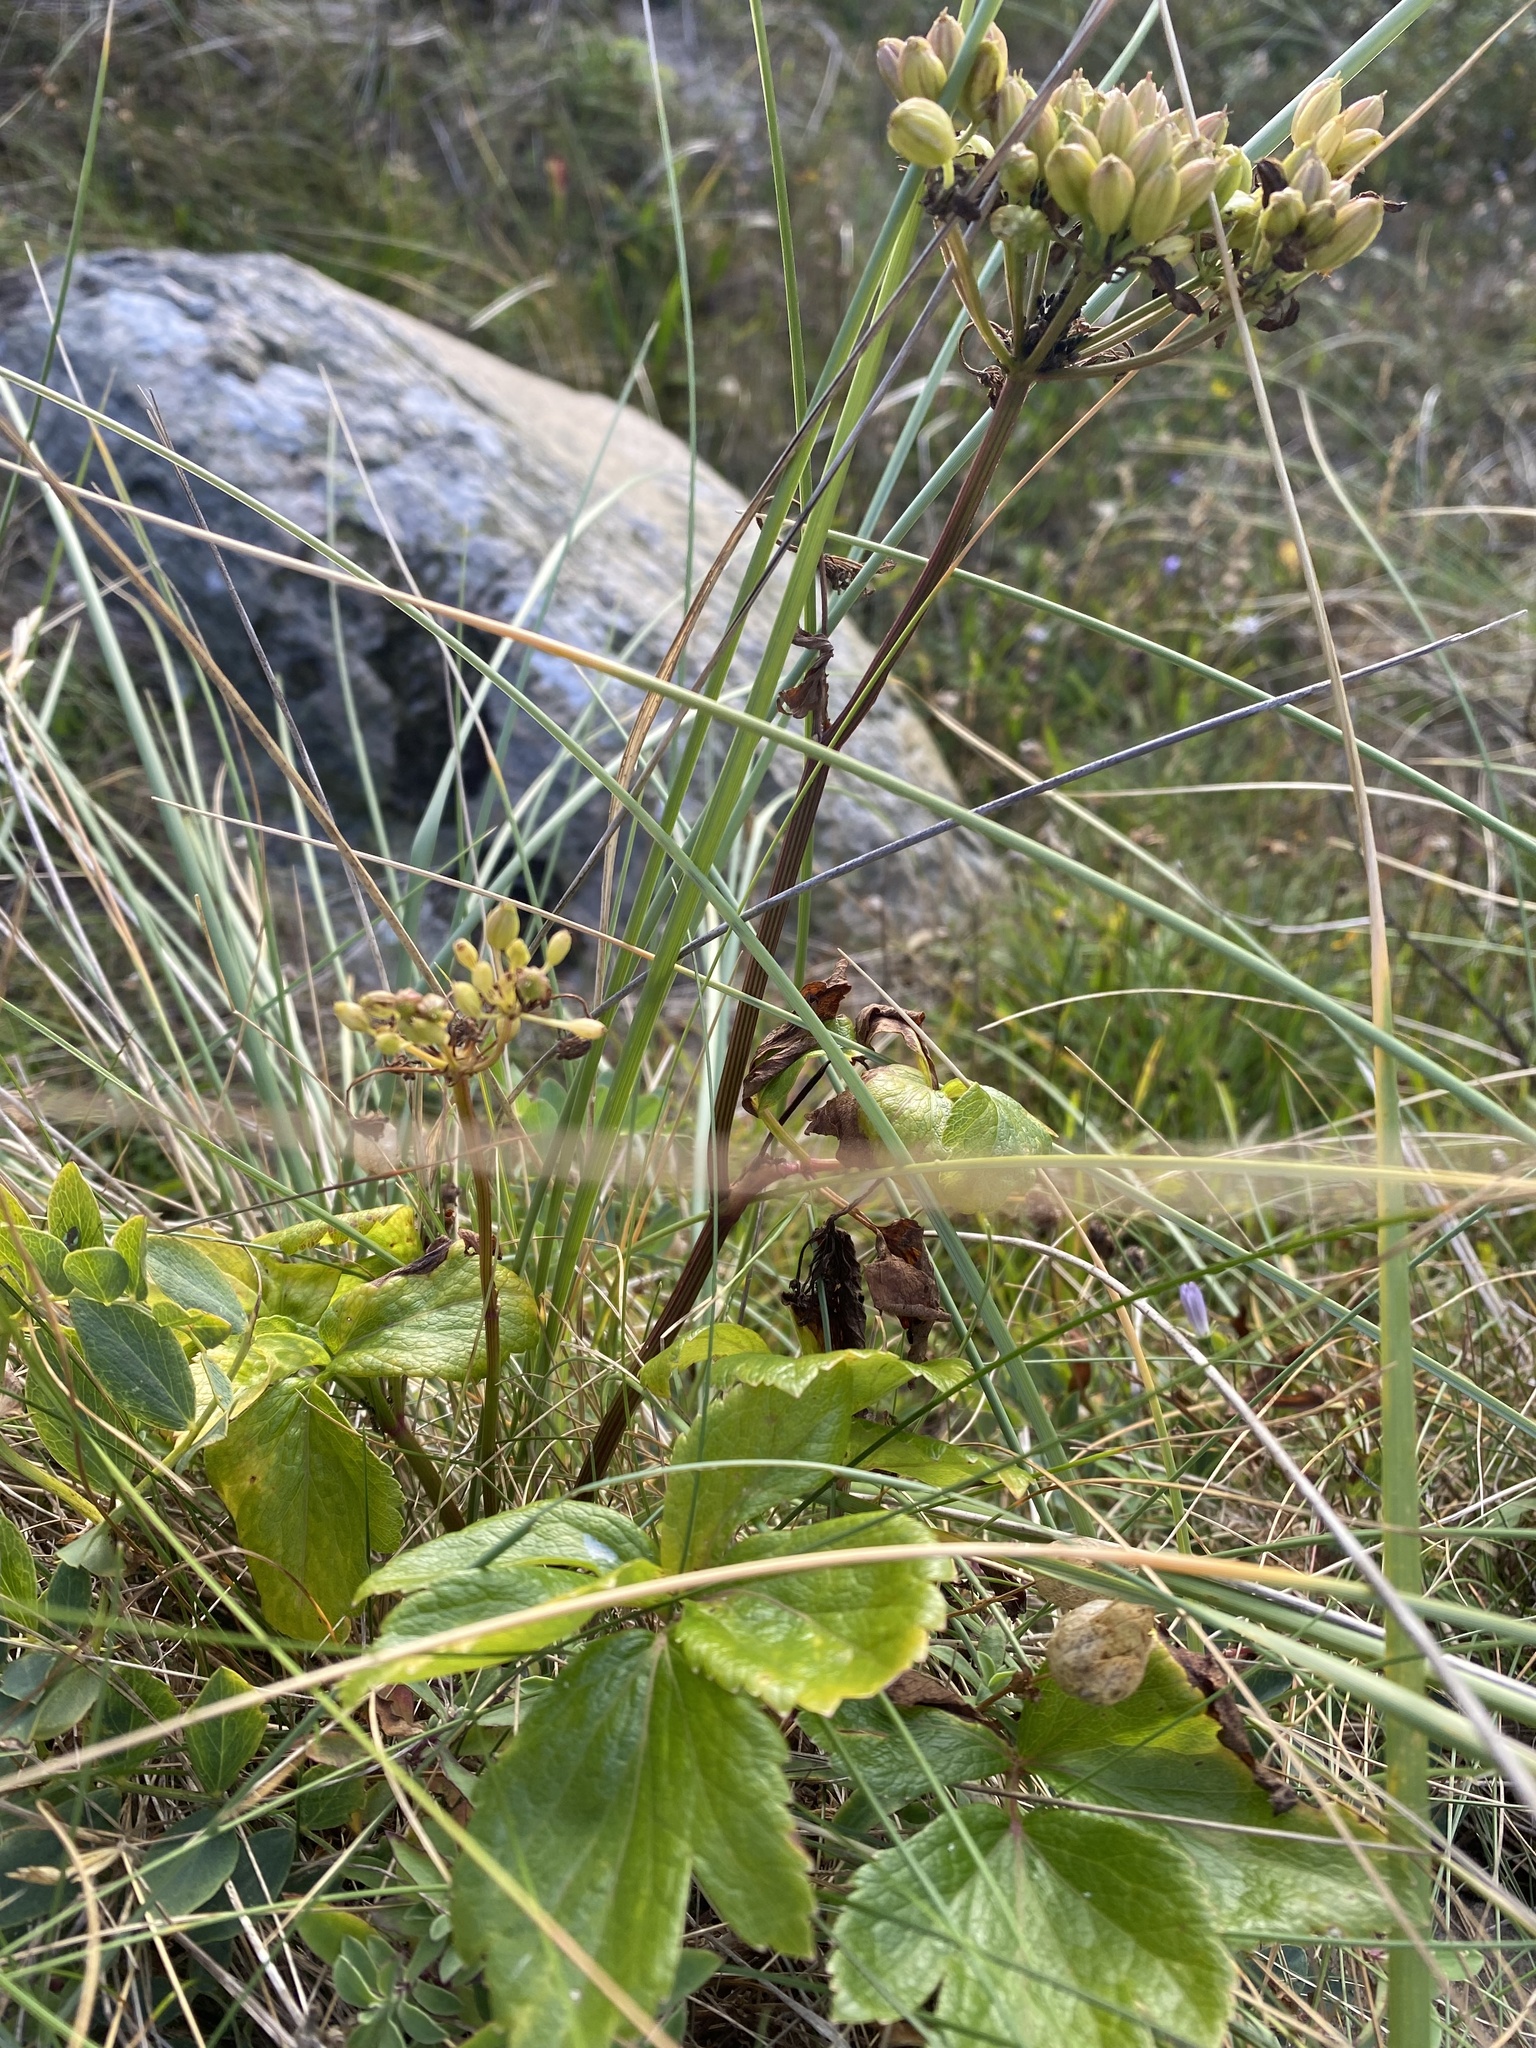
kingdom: Plantae
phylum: Tracheophyta
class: Magnoliopsida
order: Apiales
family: Apiaceae
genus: Ligusticum
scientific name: Ligusticum scothicum
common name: Beach lovage
